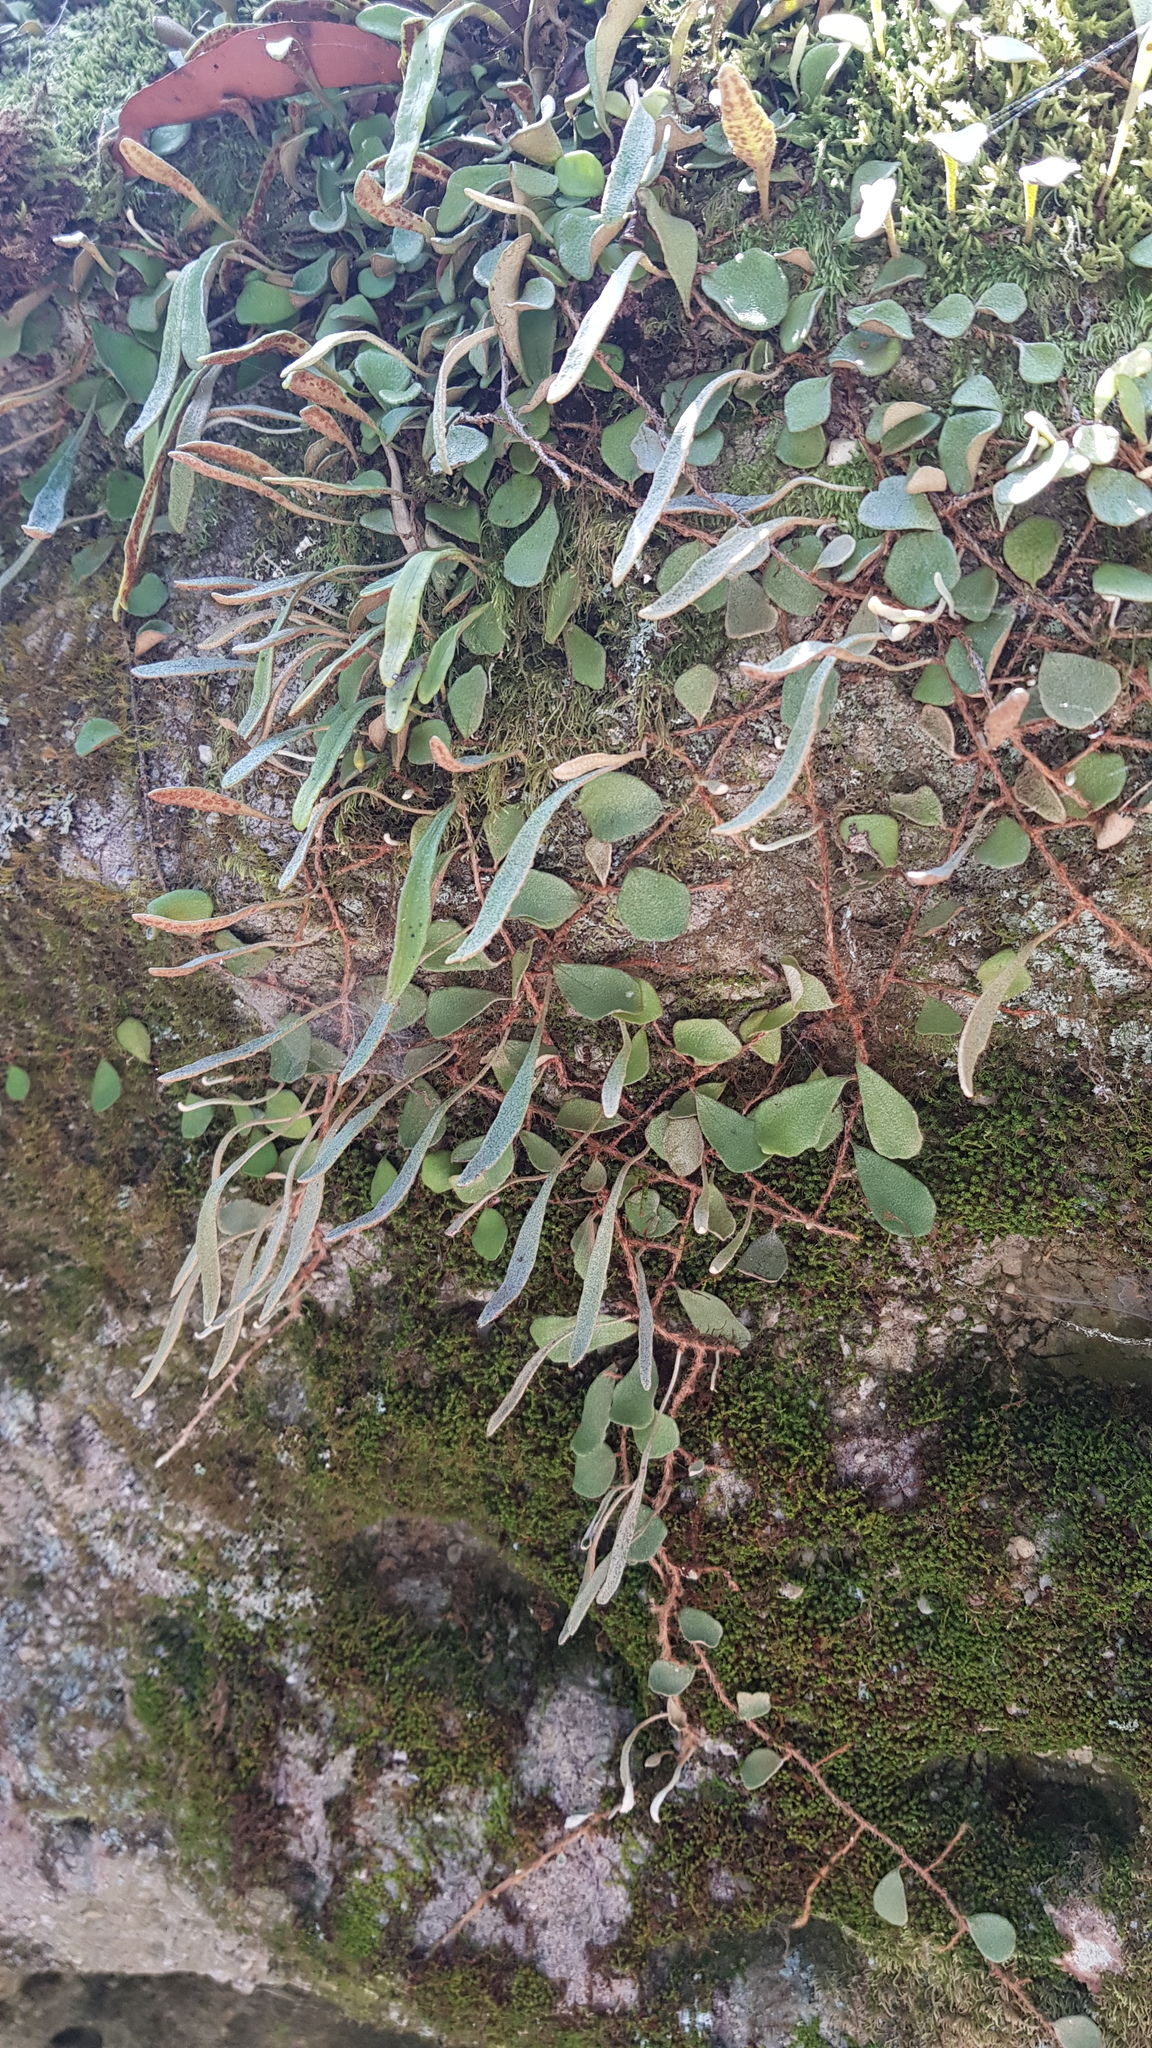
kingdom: Plantae
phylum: Tracheophyta
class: Polypodiopsida
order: Polypodiales
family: Polypodiaceae
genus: Pyrrosia
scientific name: Pyrrosia rupestris
